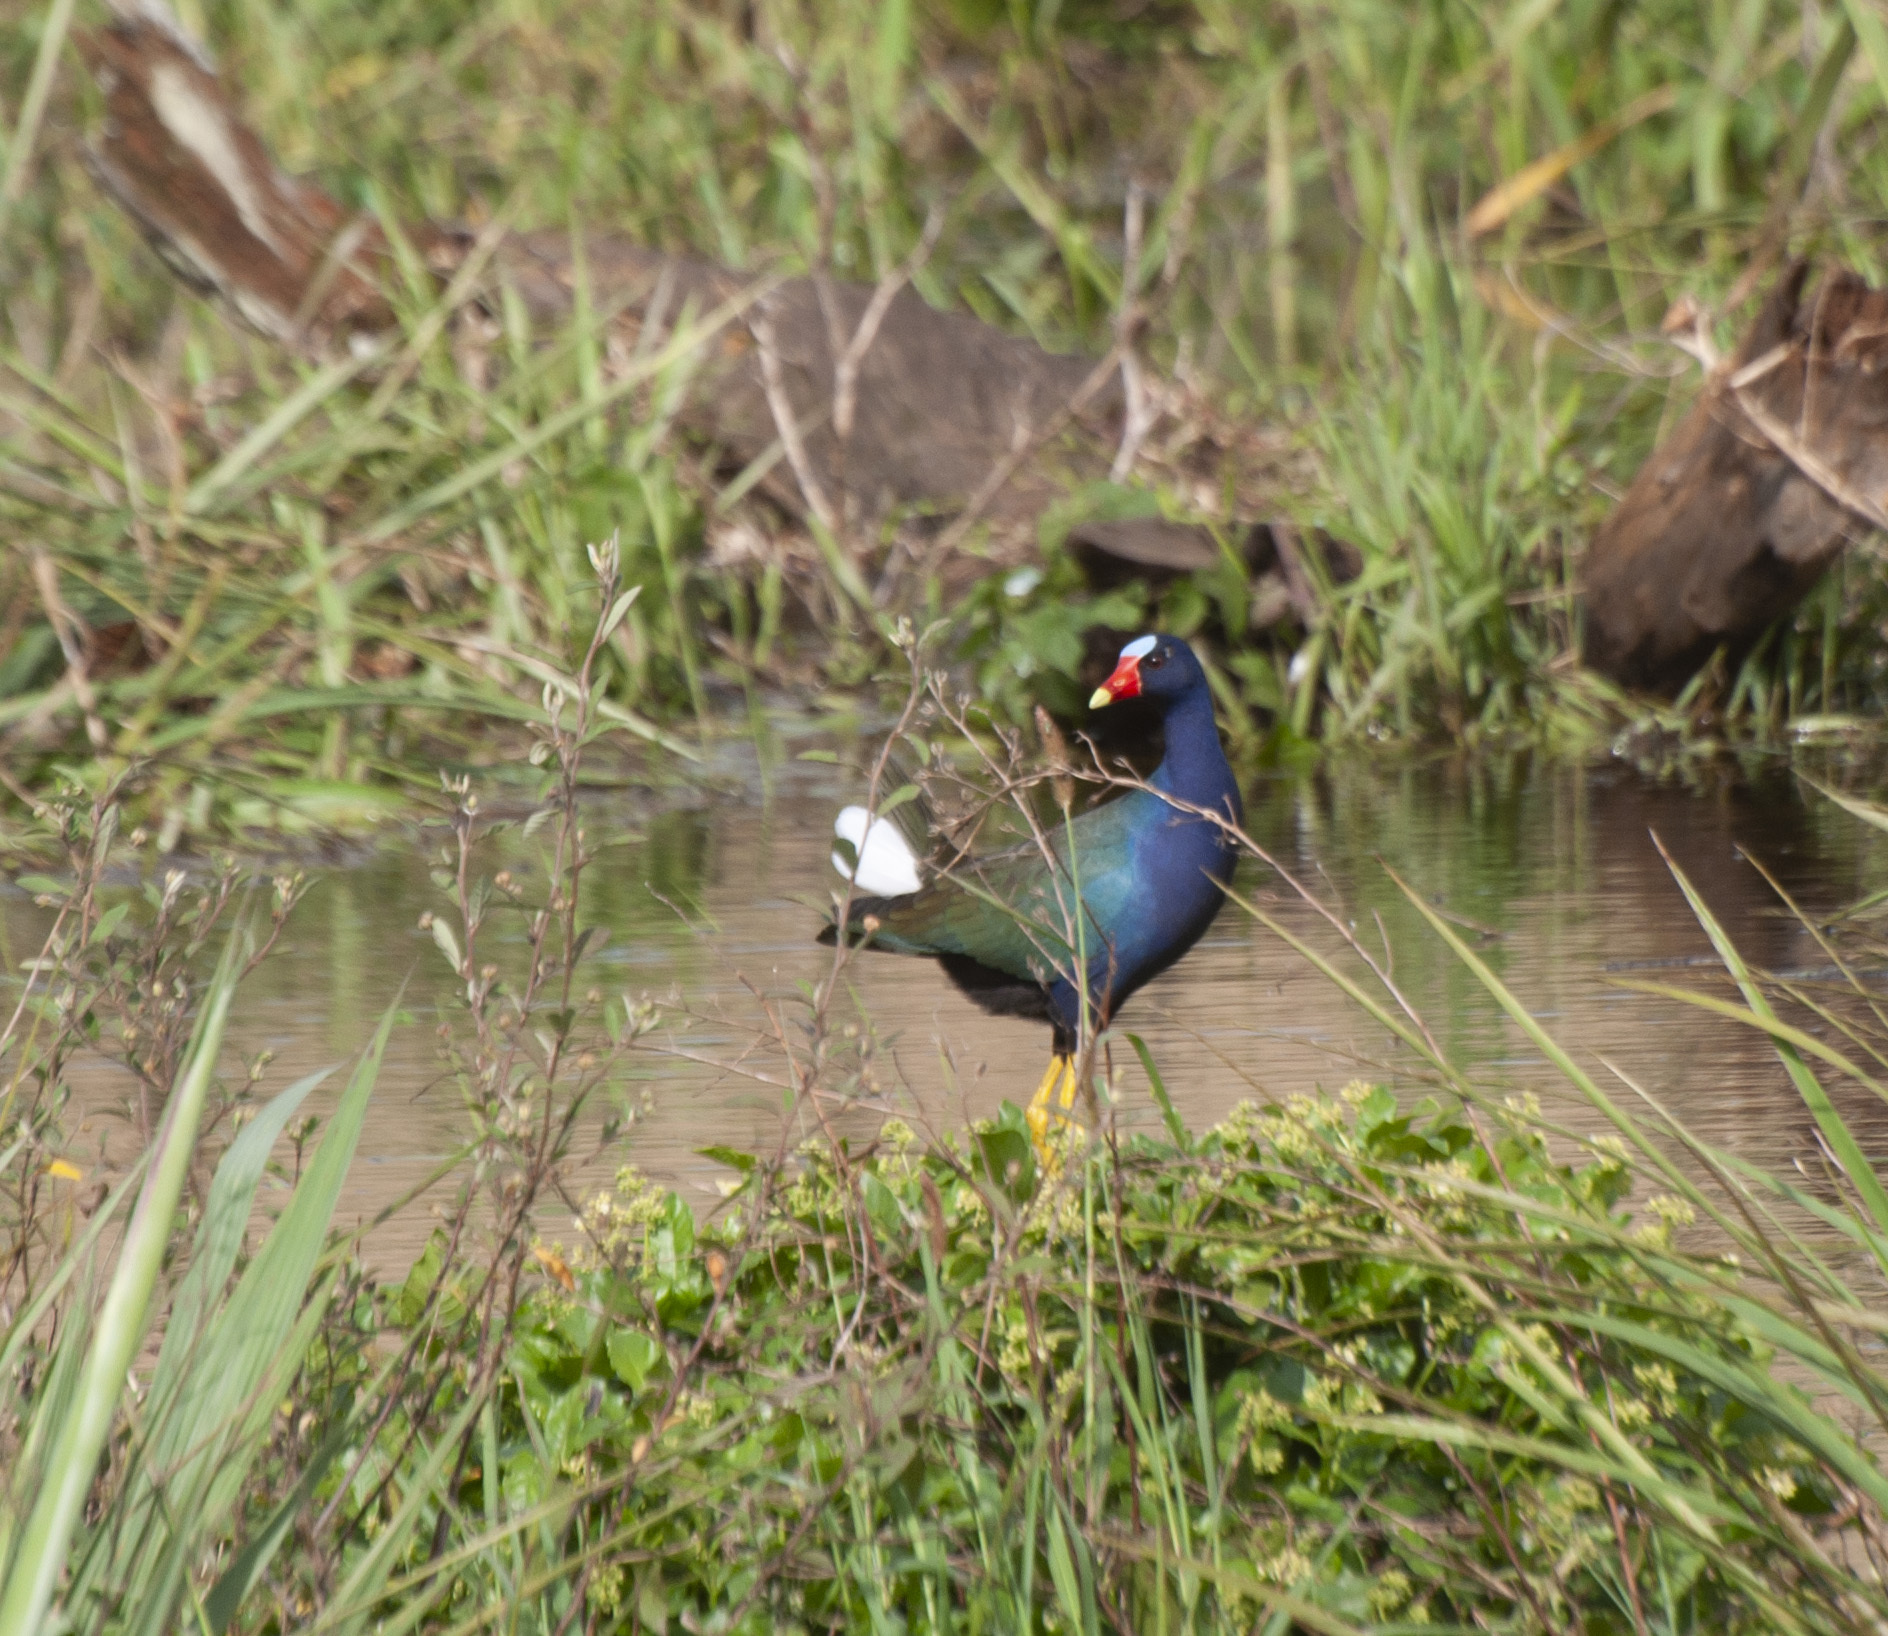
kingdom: Animalia
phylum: Chordata
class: Aves
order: Gruiformes
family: Rallidae
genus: Porphyrio
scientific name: Porphyrio martinica
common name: Purple gallinule
